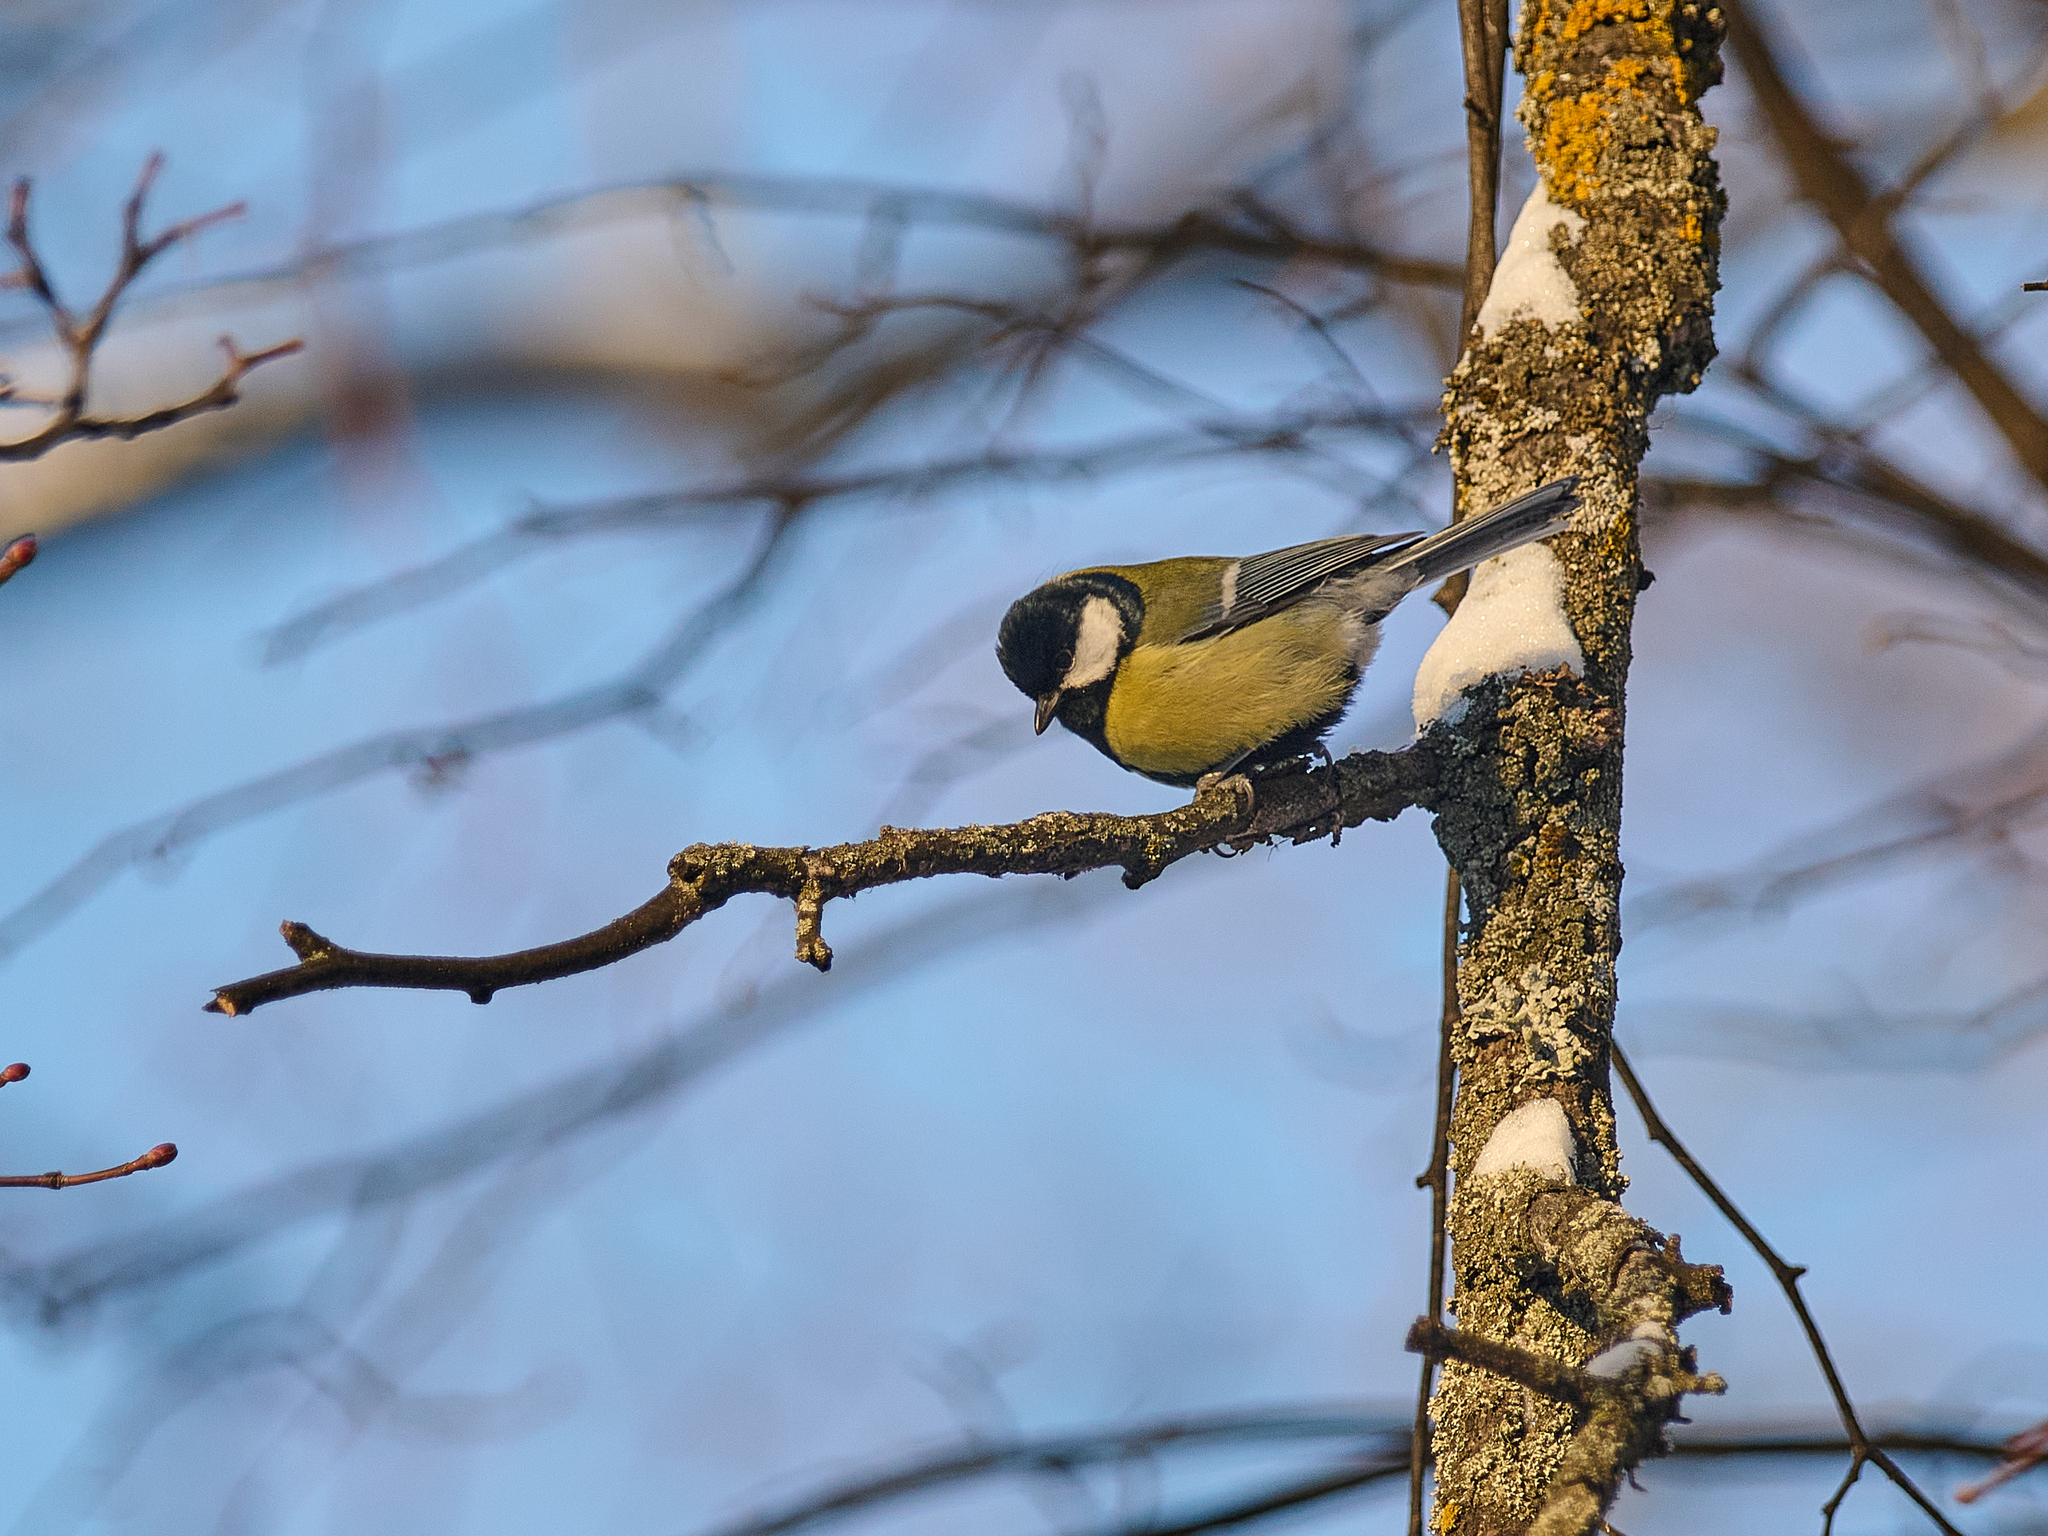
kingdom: Animalia
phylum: Chordata
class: Aves
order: Passeriformes
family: Paridae
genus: Parus
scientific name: Parus major
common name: Great tit
